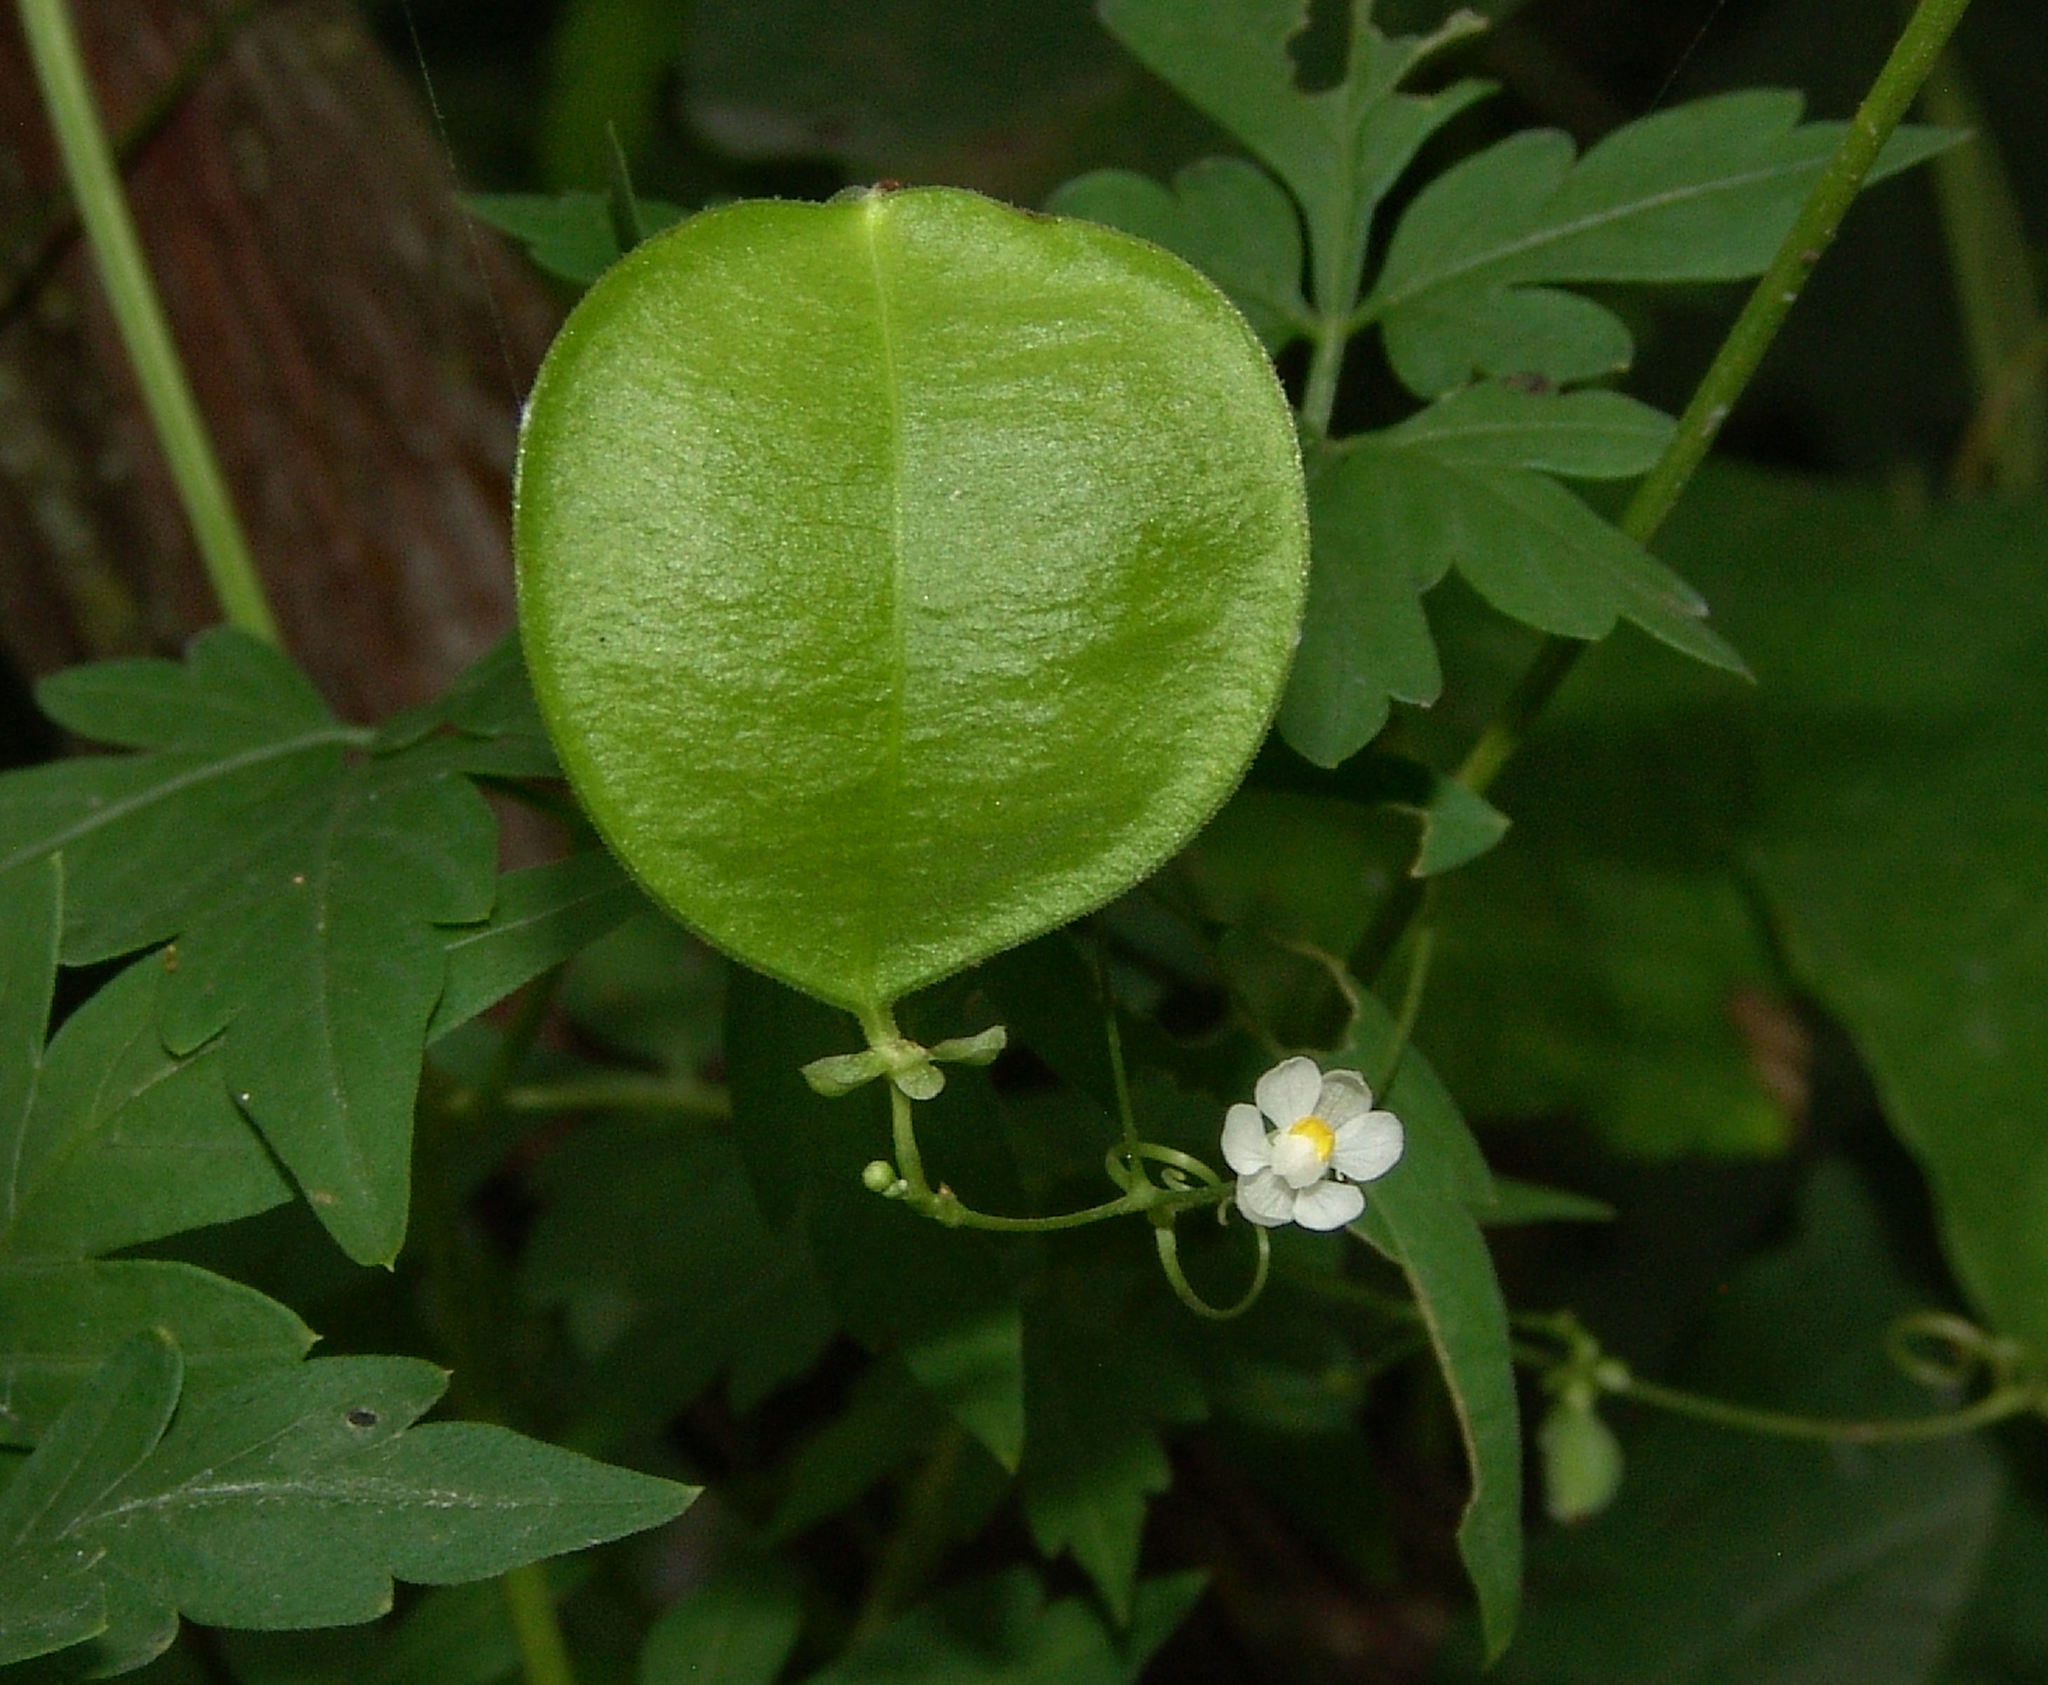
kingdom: Plantae
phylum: Tracheophyta
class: Magnoliopsida
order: Sapindales
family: Sapindaceae
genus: Cardiospermum
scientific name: Cardiospermum halicacabum
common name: Balloon vine
